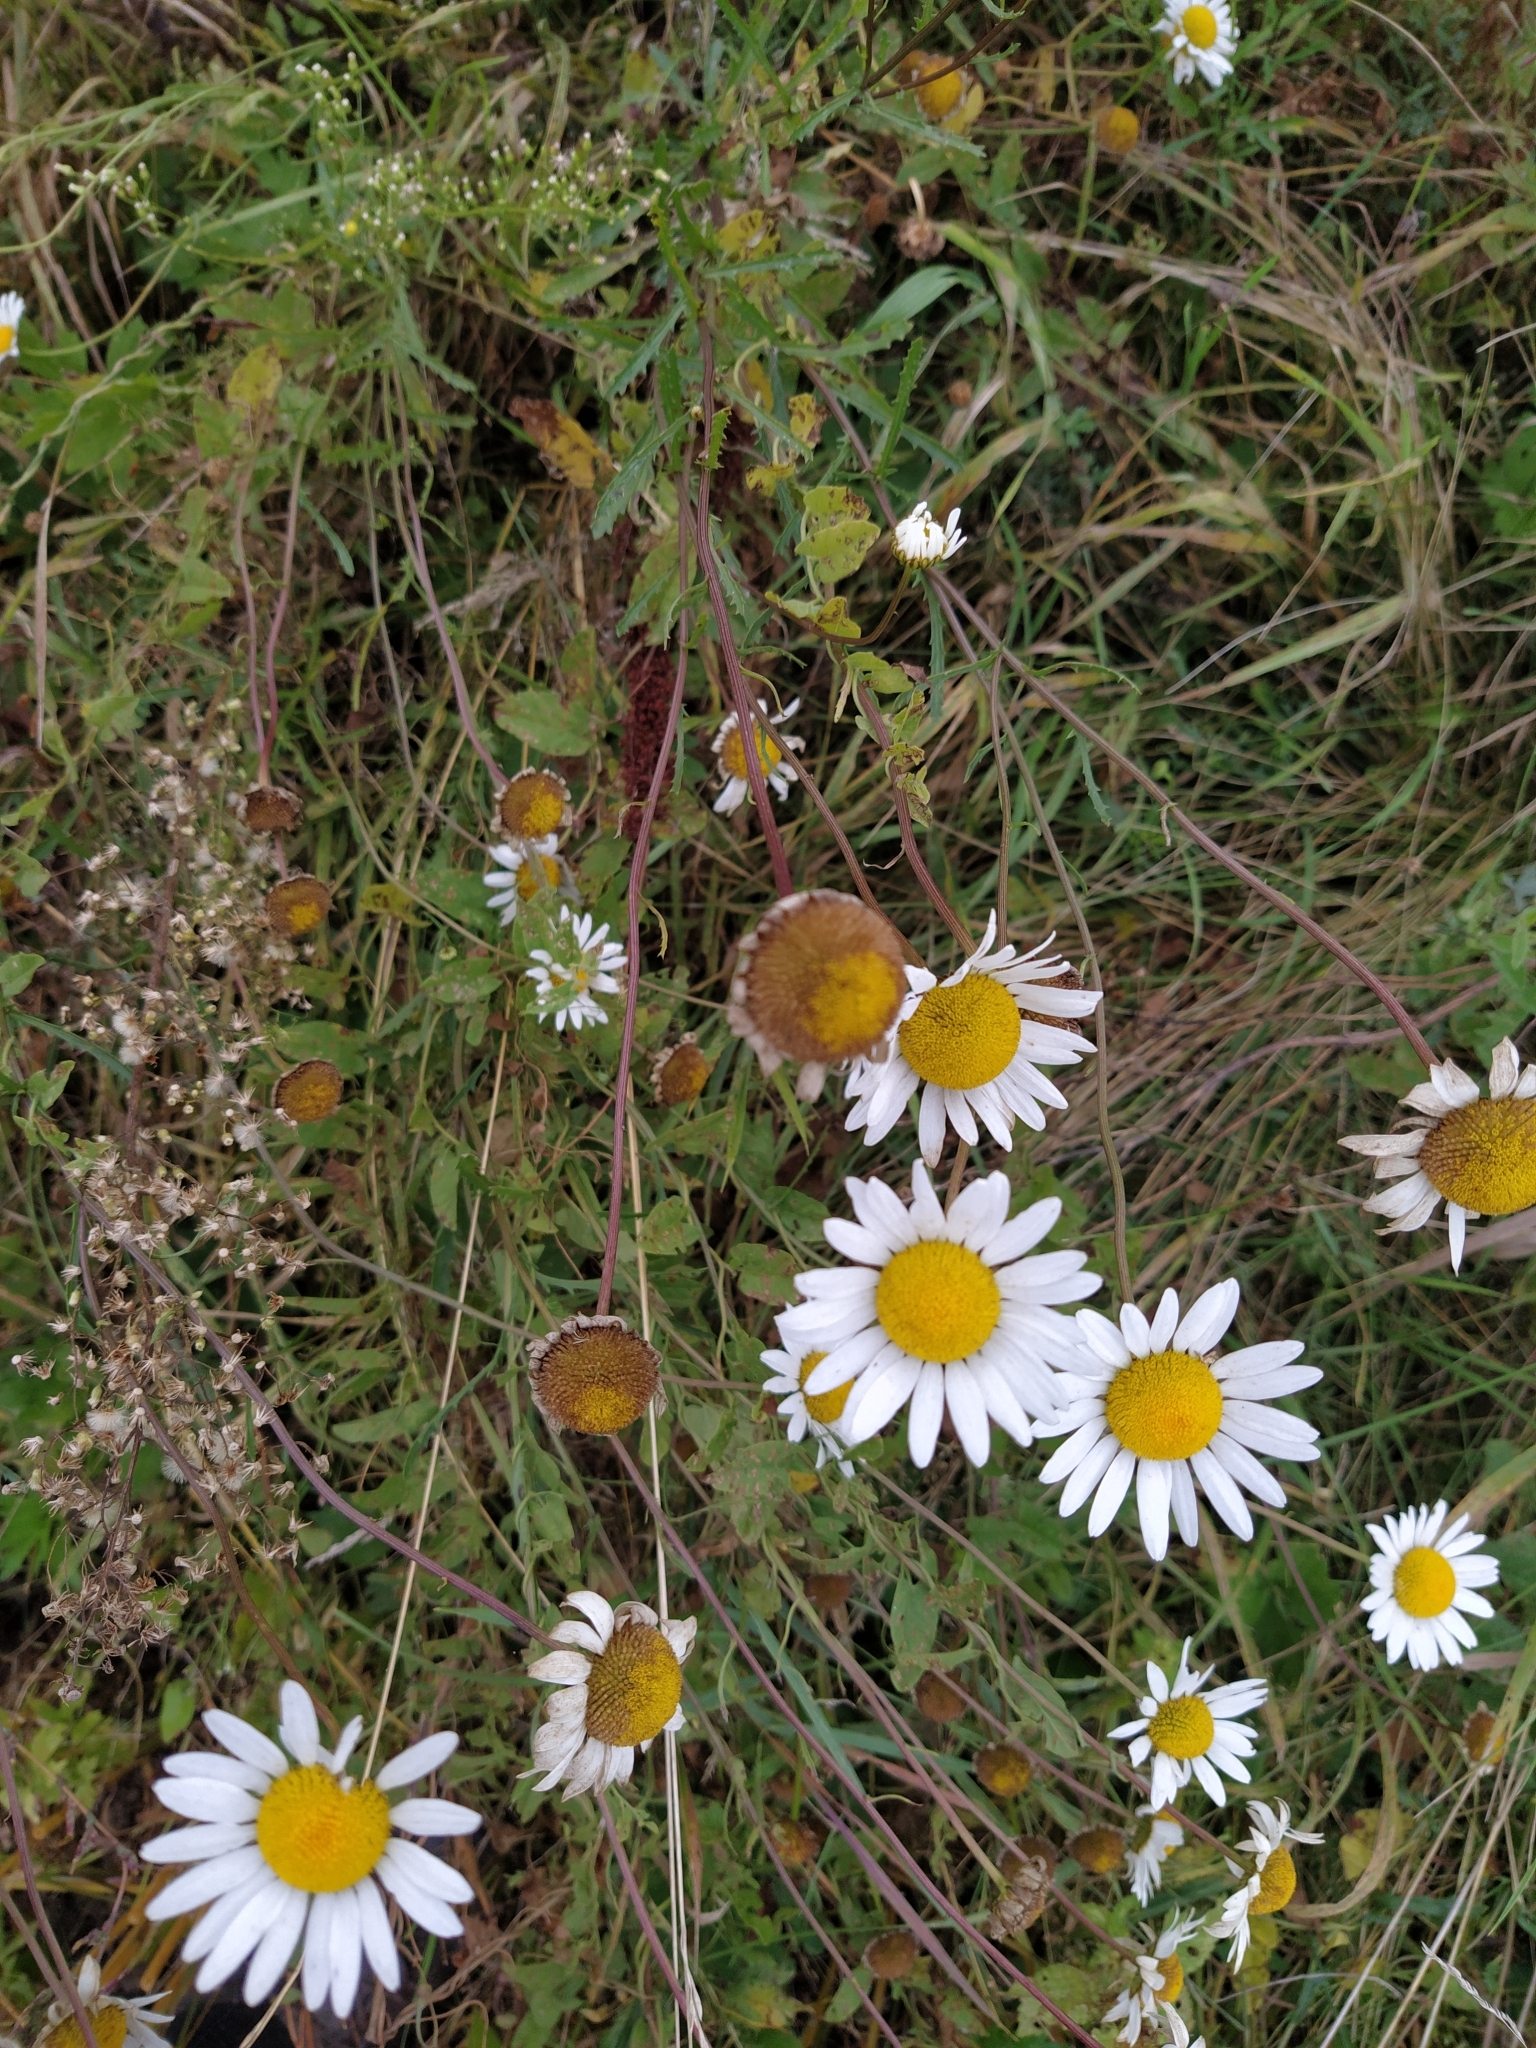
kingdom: Plantae
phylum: Tracheophyta
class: Magnoliopsida
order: Asterales
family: Asteraceae
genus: Leucanthemum
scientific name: Leucanthemum vulgare
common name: Oxeye daisy
